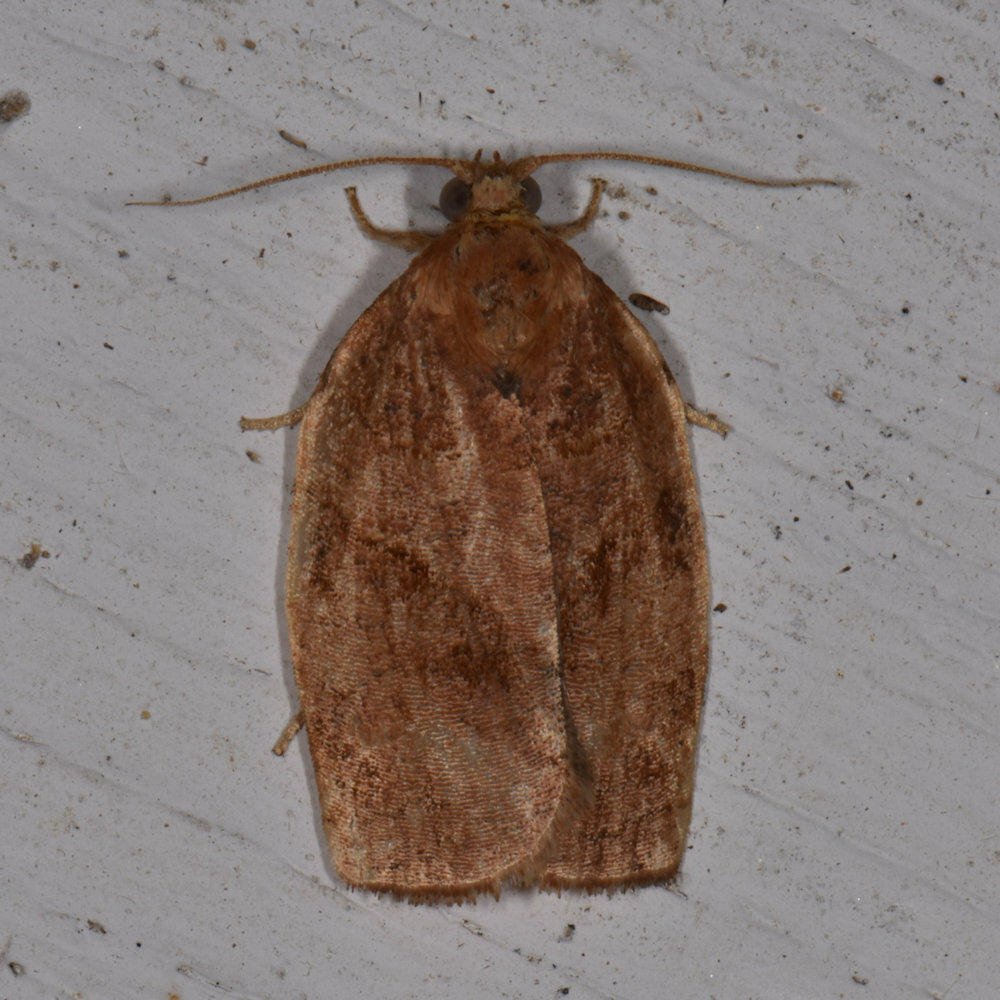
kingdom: Animalia
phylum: Arthropoda
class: Insecta
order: Lepidoptera
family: Tortricidae
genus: Choristoneura
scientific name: Choristoneura rosaceana
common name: Oblique-banded leafroller moth
